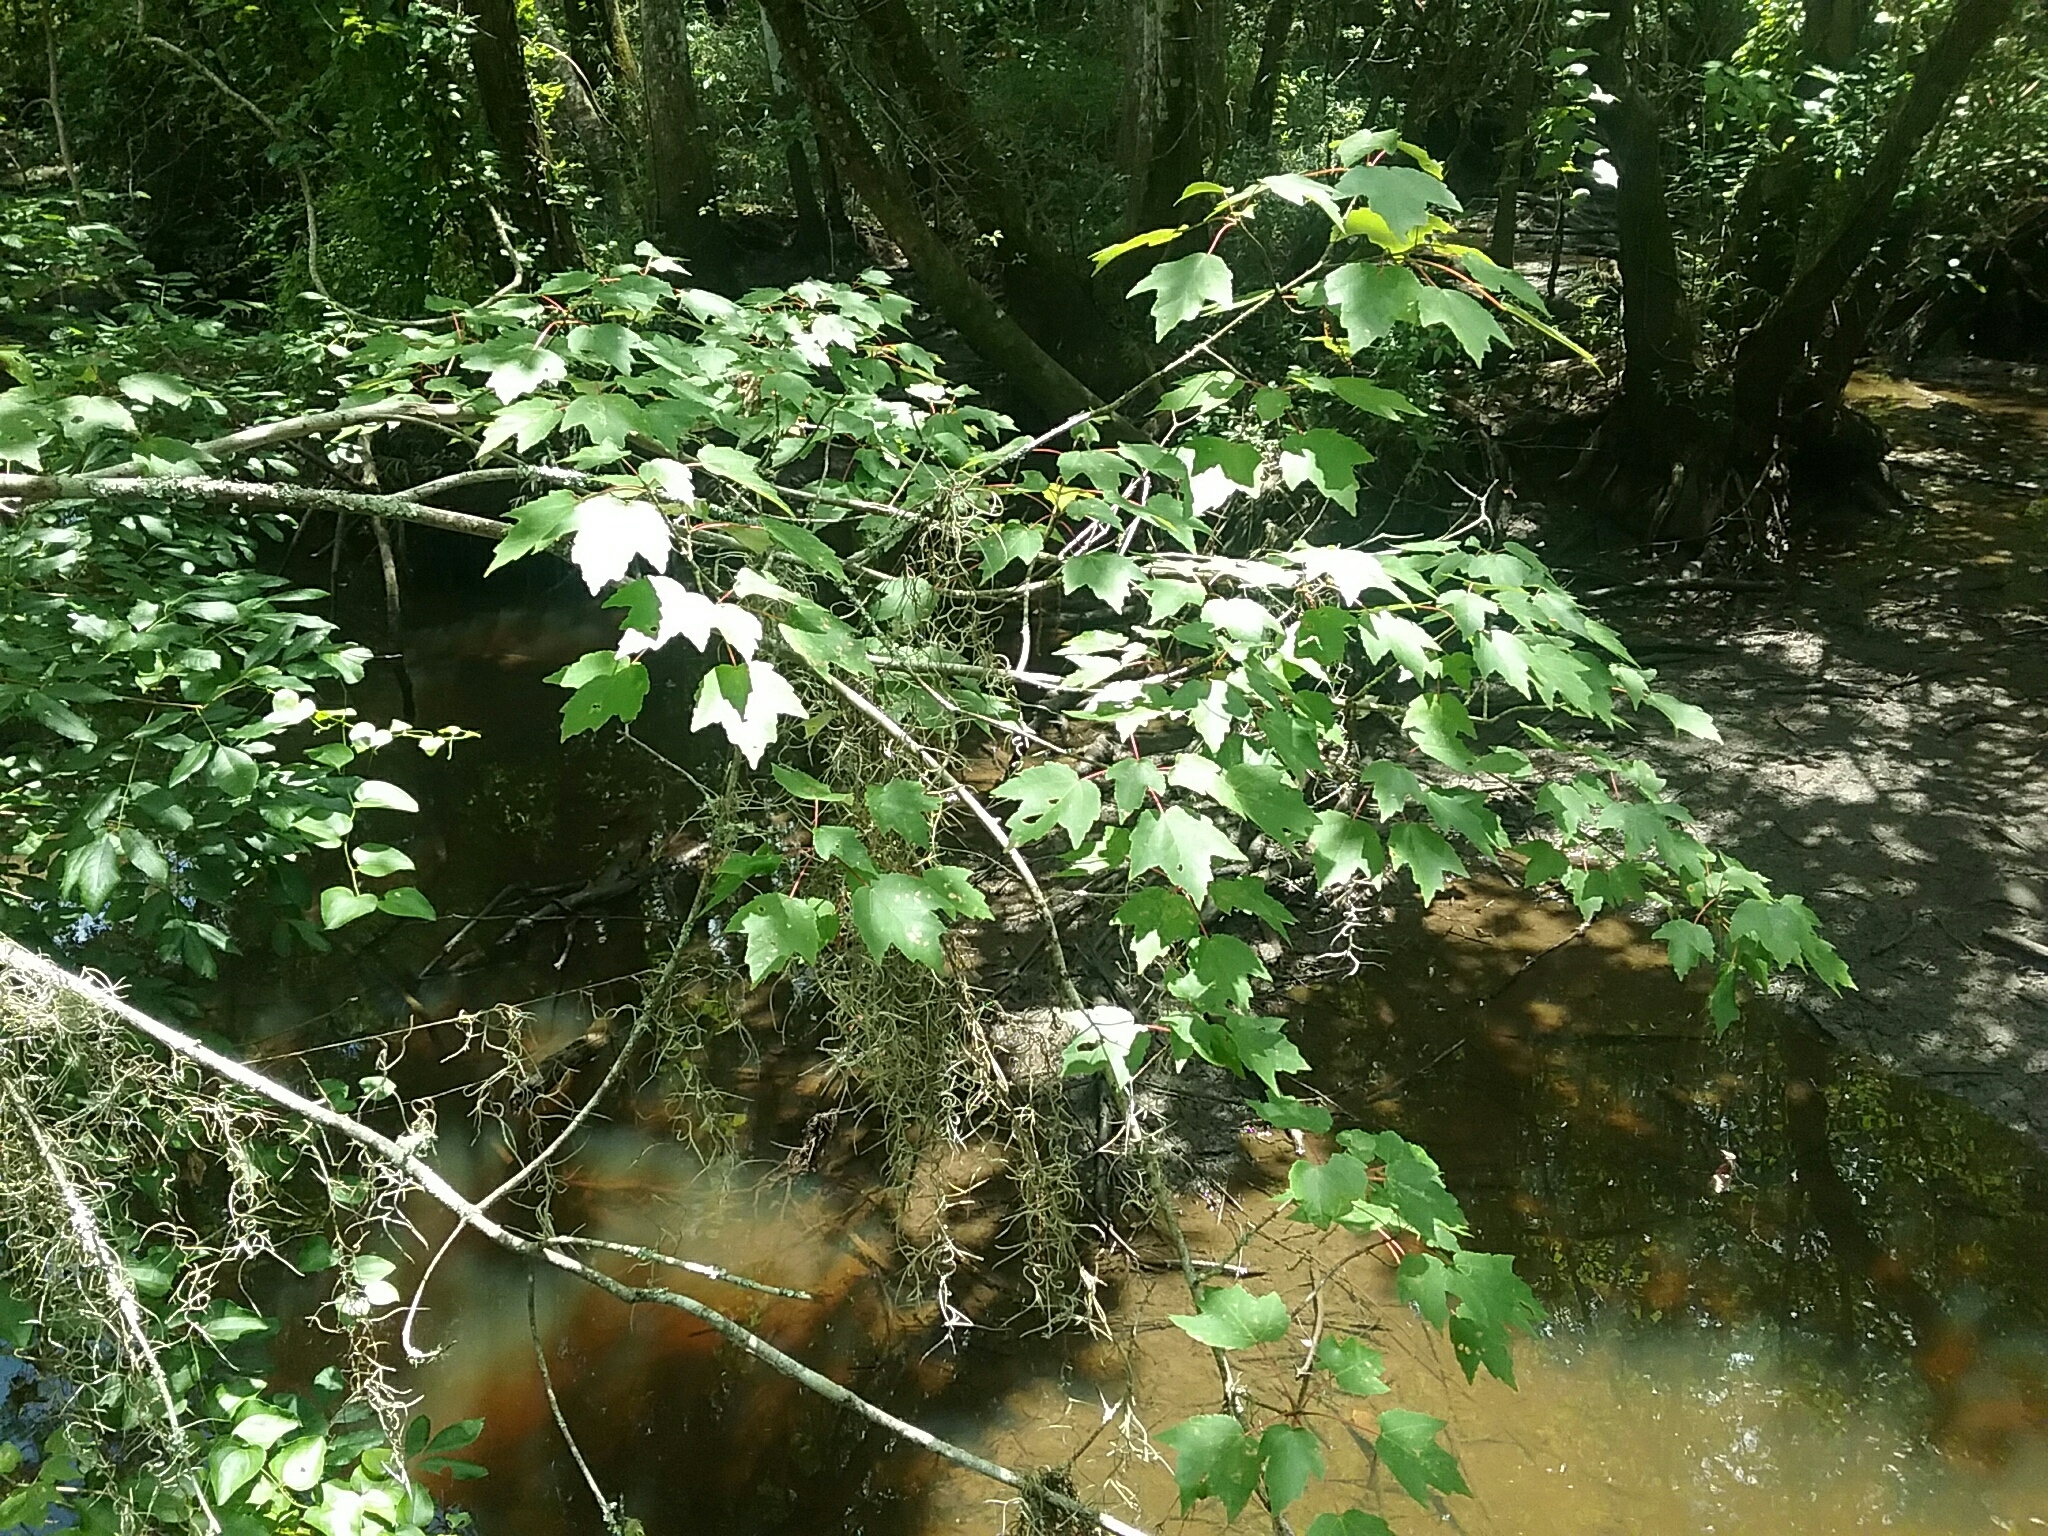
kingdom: Plantae
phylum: Tracheophyta
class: Magnoliopsida
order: Sapindales
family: Sapindaceae
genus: Acer
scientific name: Acer rubrum
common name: Red maple
